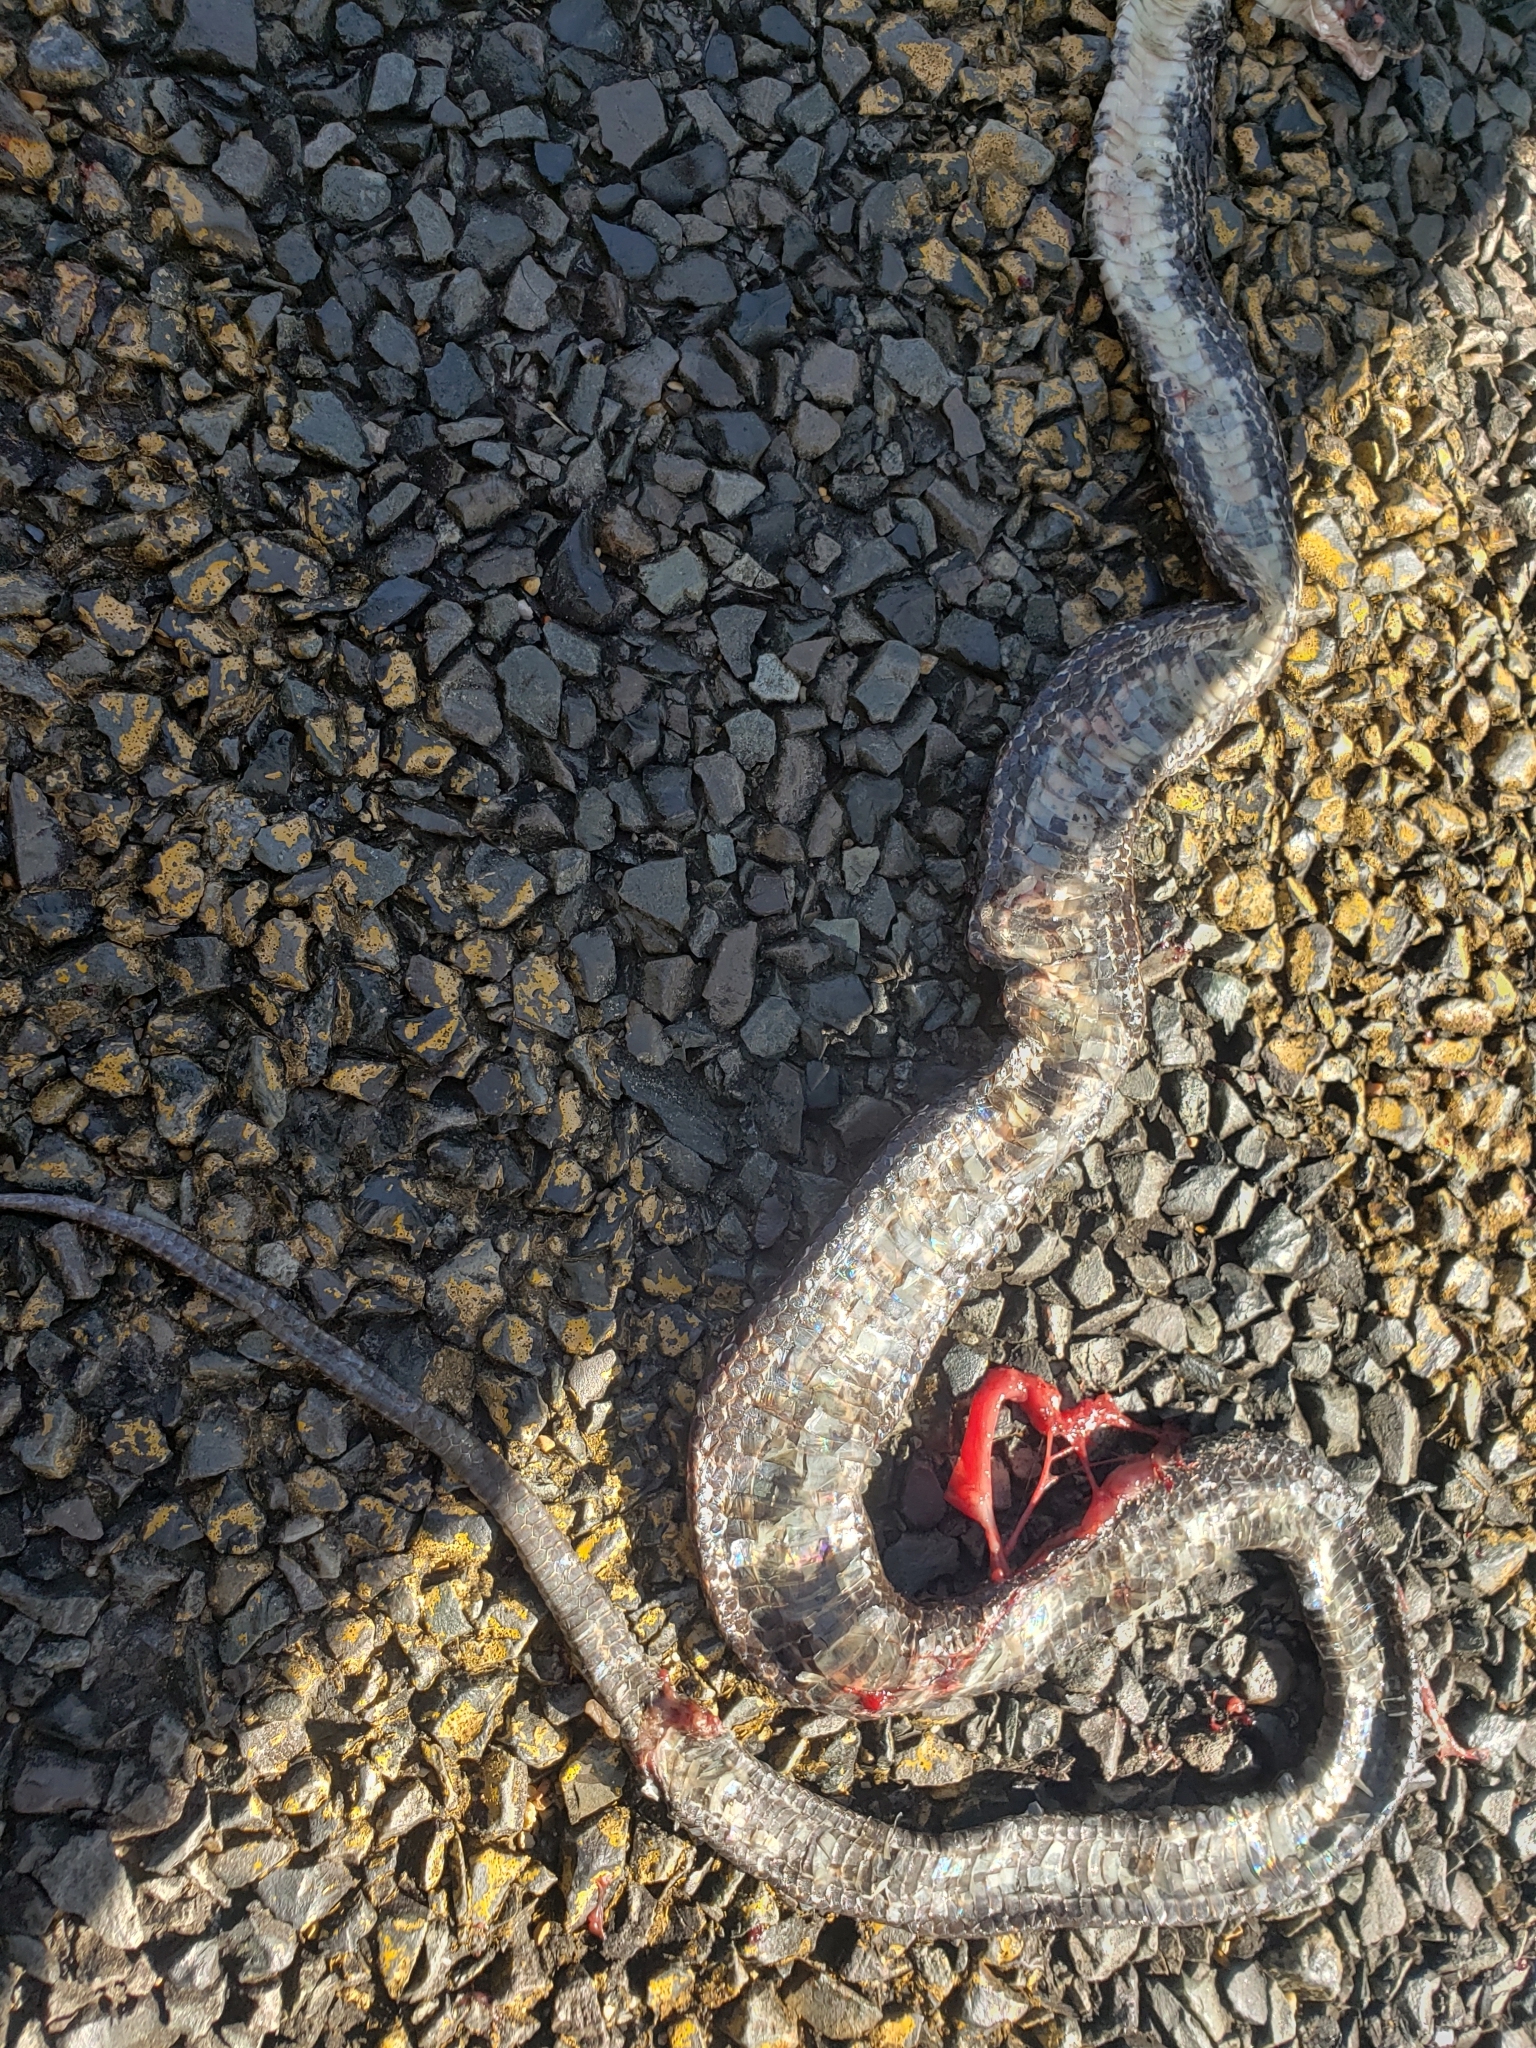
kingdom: Animalia
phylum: Chordata
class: Squamata
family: Colubridae
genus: Pantherophis
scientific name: Pantherophis obsoletus
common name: Black rat snake
